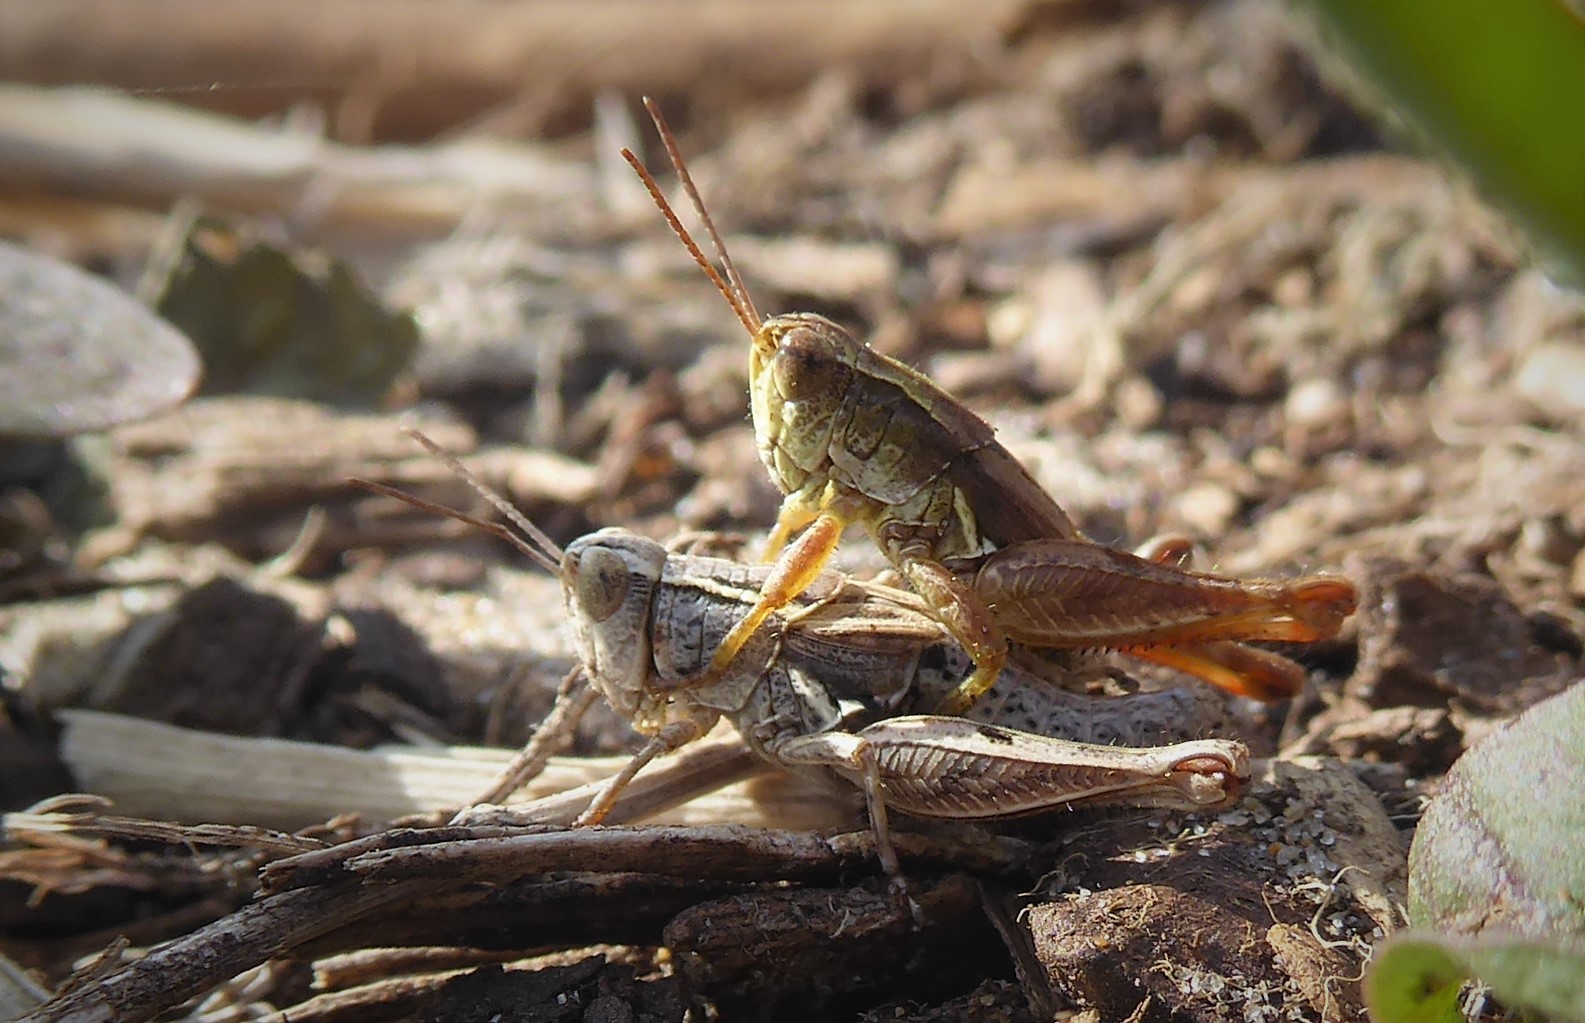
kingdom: Animalia
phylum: Arthropoda
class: Insecta
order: Orthoptera
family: Acrididae
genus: Phaulacridium
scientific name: Phaulacridium marginale
